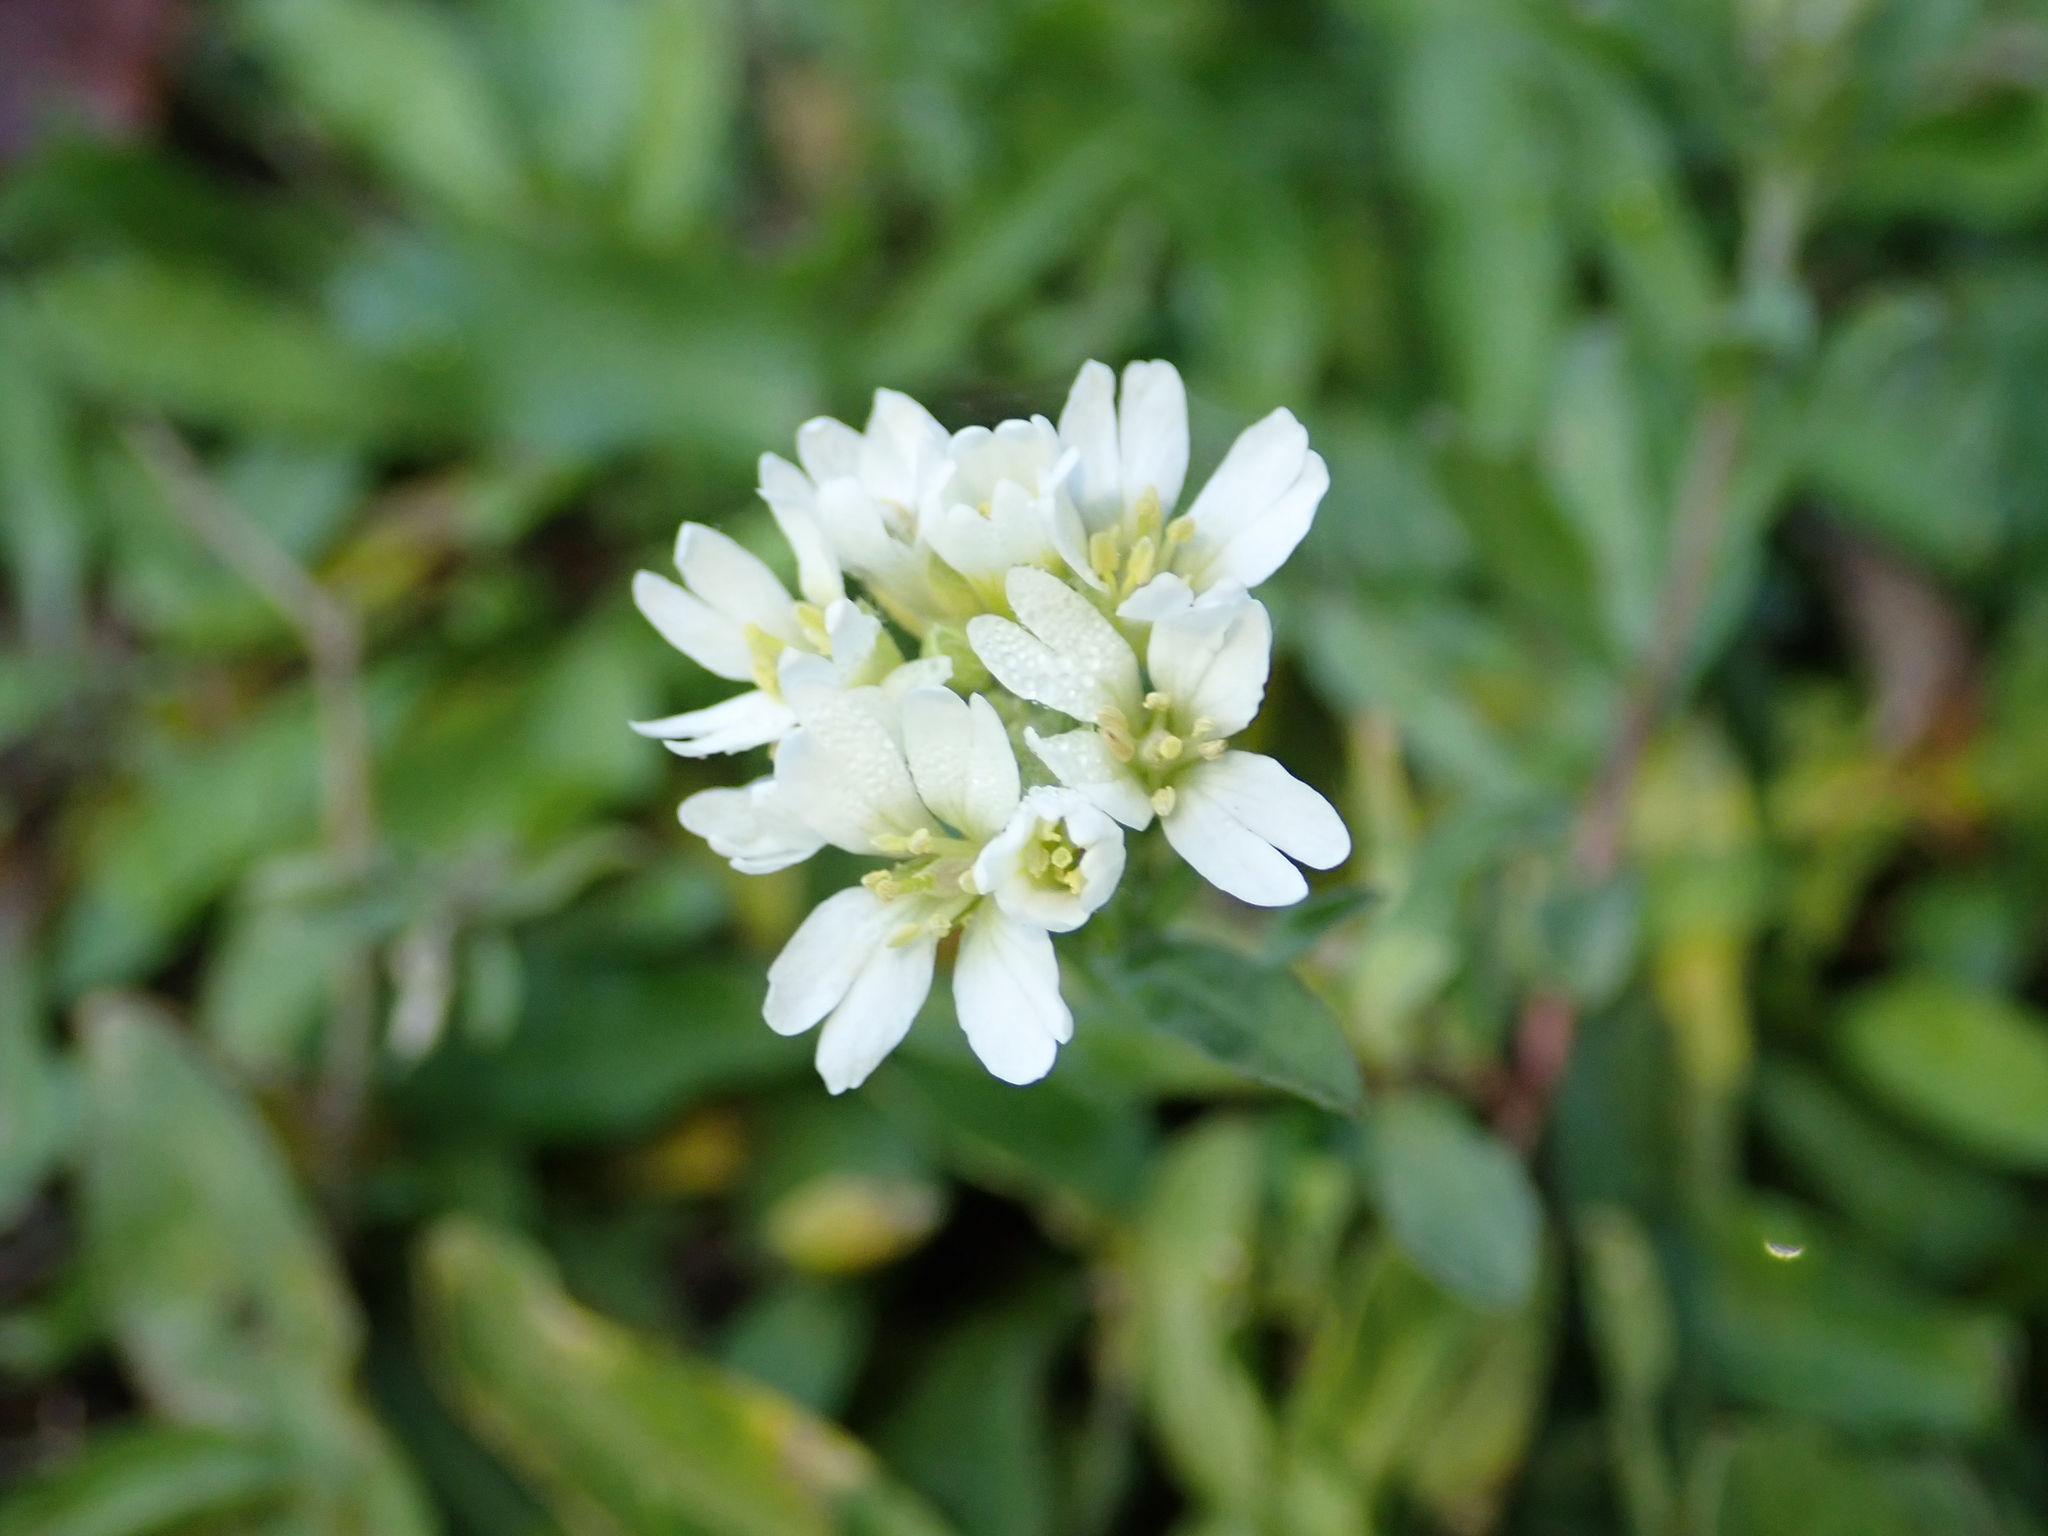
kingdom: Plantae
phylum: Tracheophyta
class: Magnoliopsida
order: Brassicales
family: Brassicaceae
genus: Berteroa
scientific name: Berteroa incana
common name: Hoary alison
